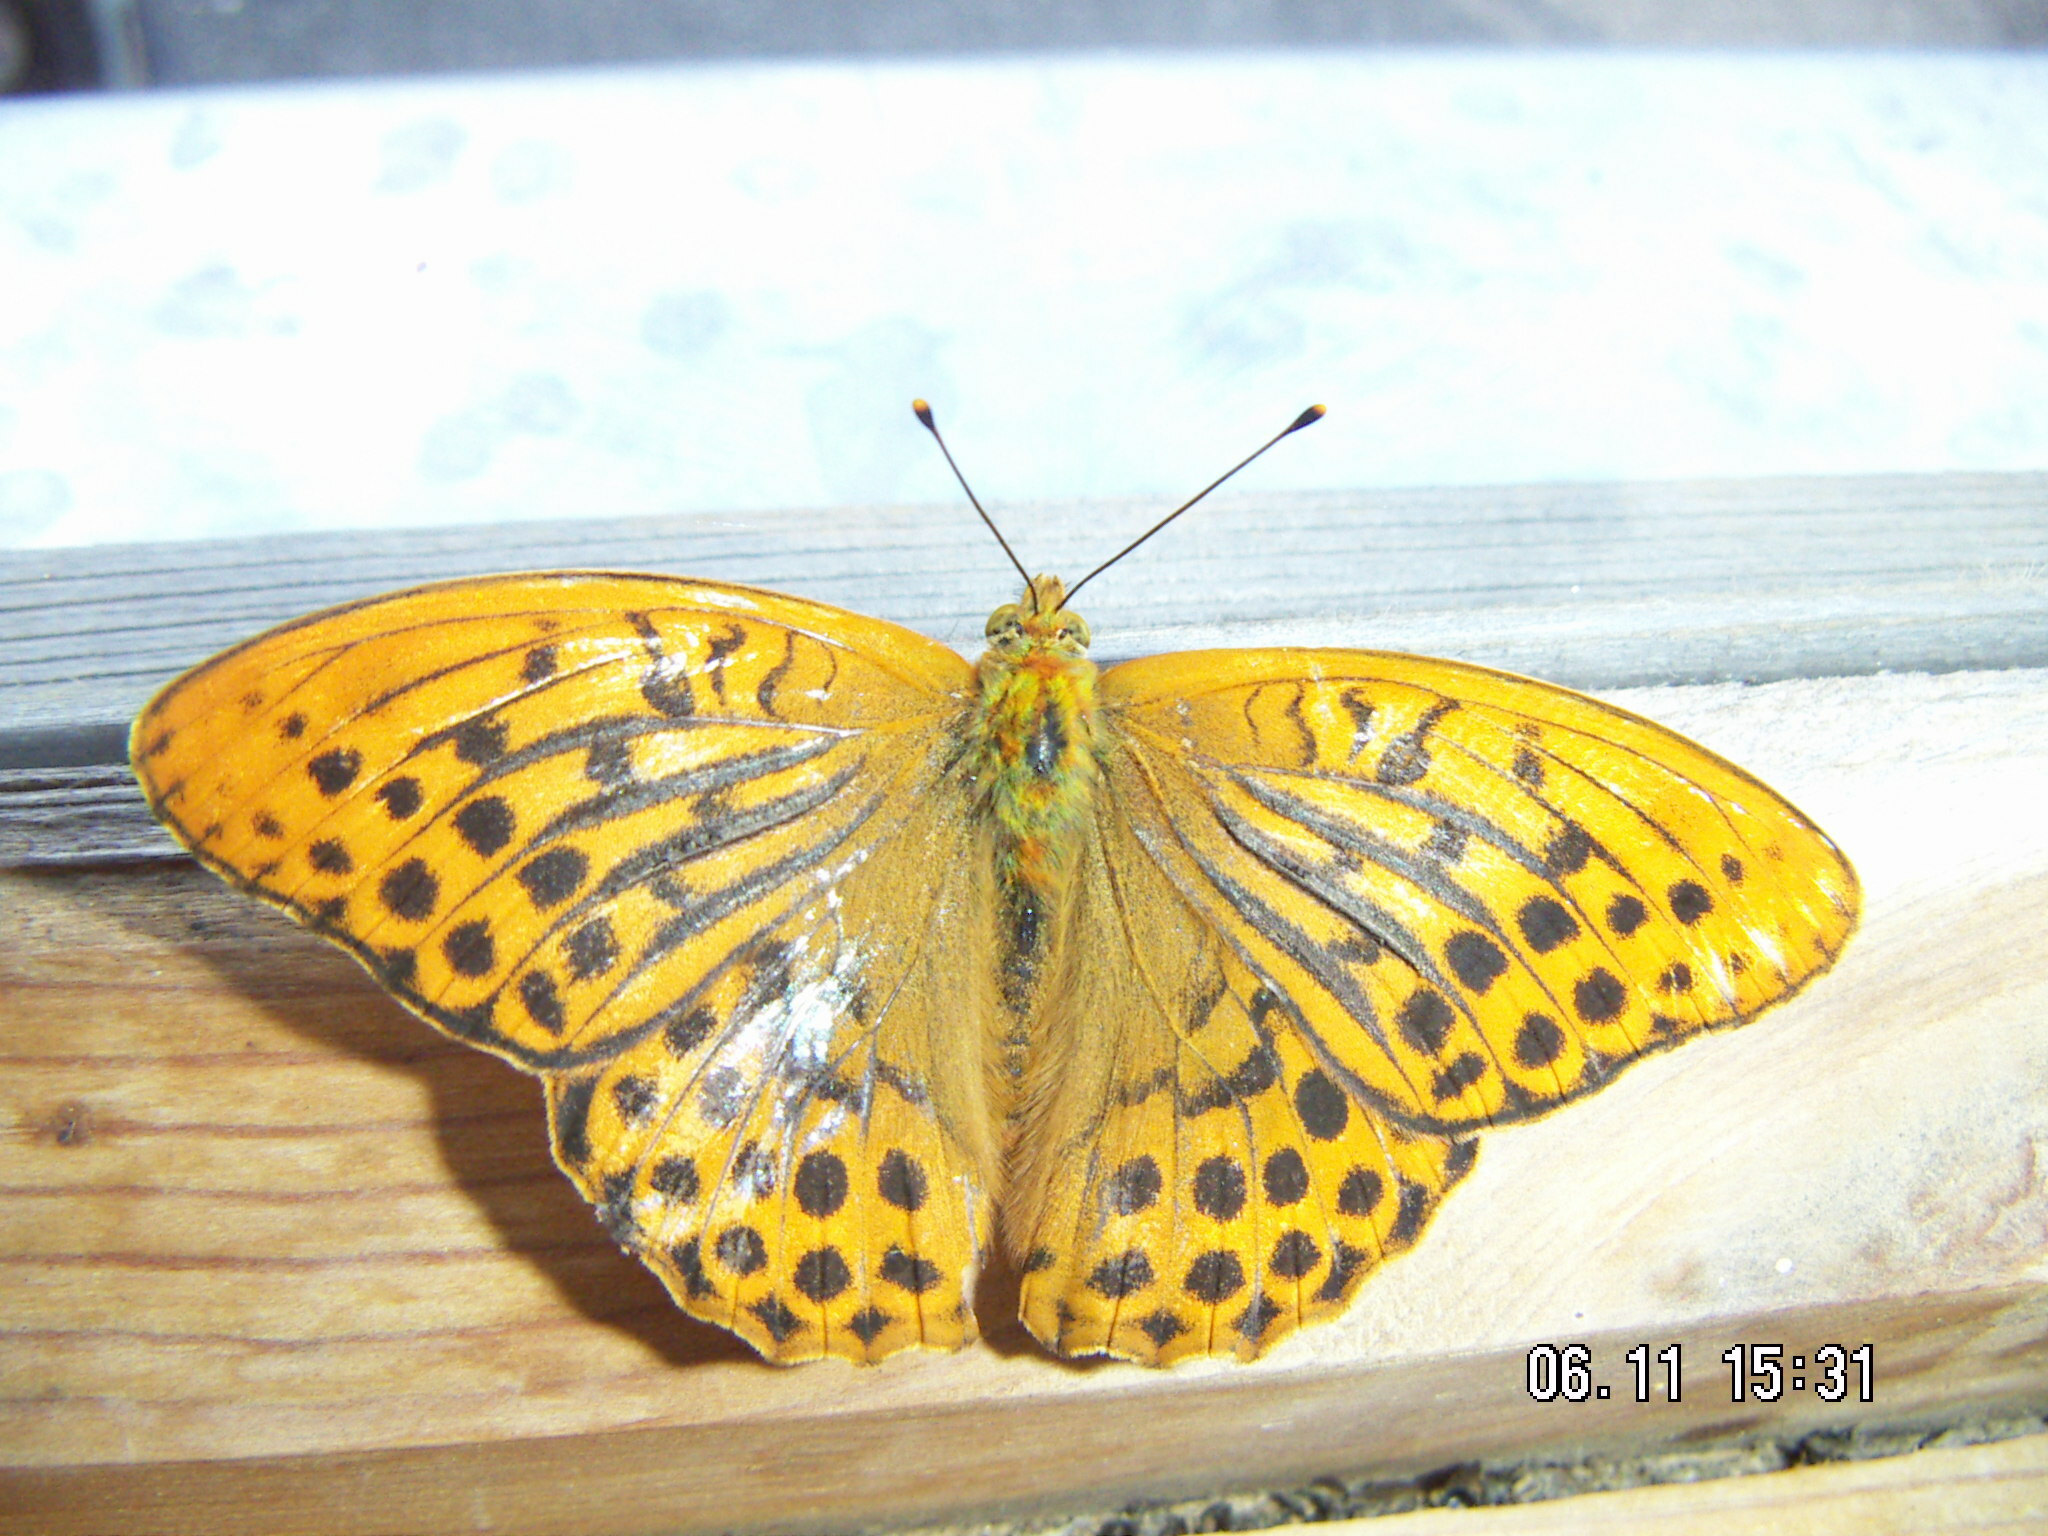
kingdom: Animalia
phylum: Arthropoda
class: Insecta
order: Lepidoptera
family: Nymphalidae
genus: Argynnis
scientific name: Argynnis paphia
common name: Silver-washed fritillary
